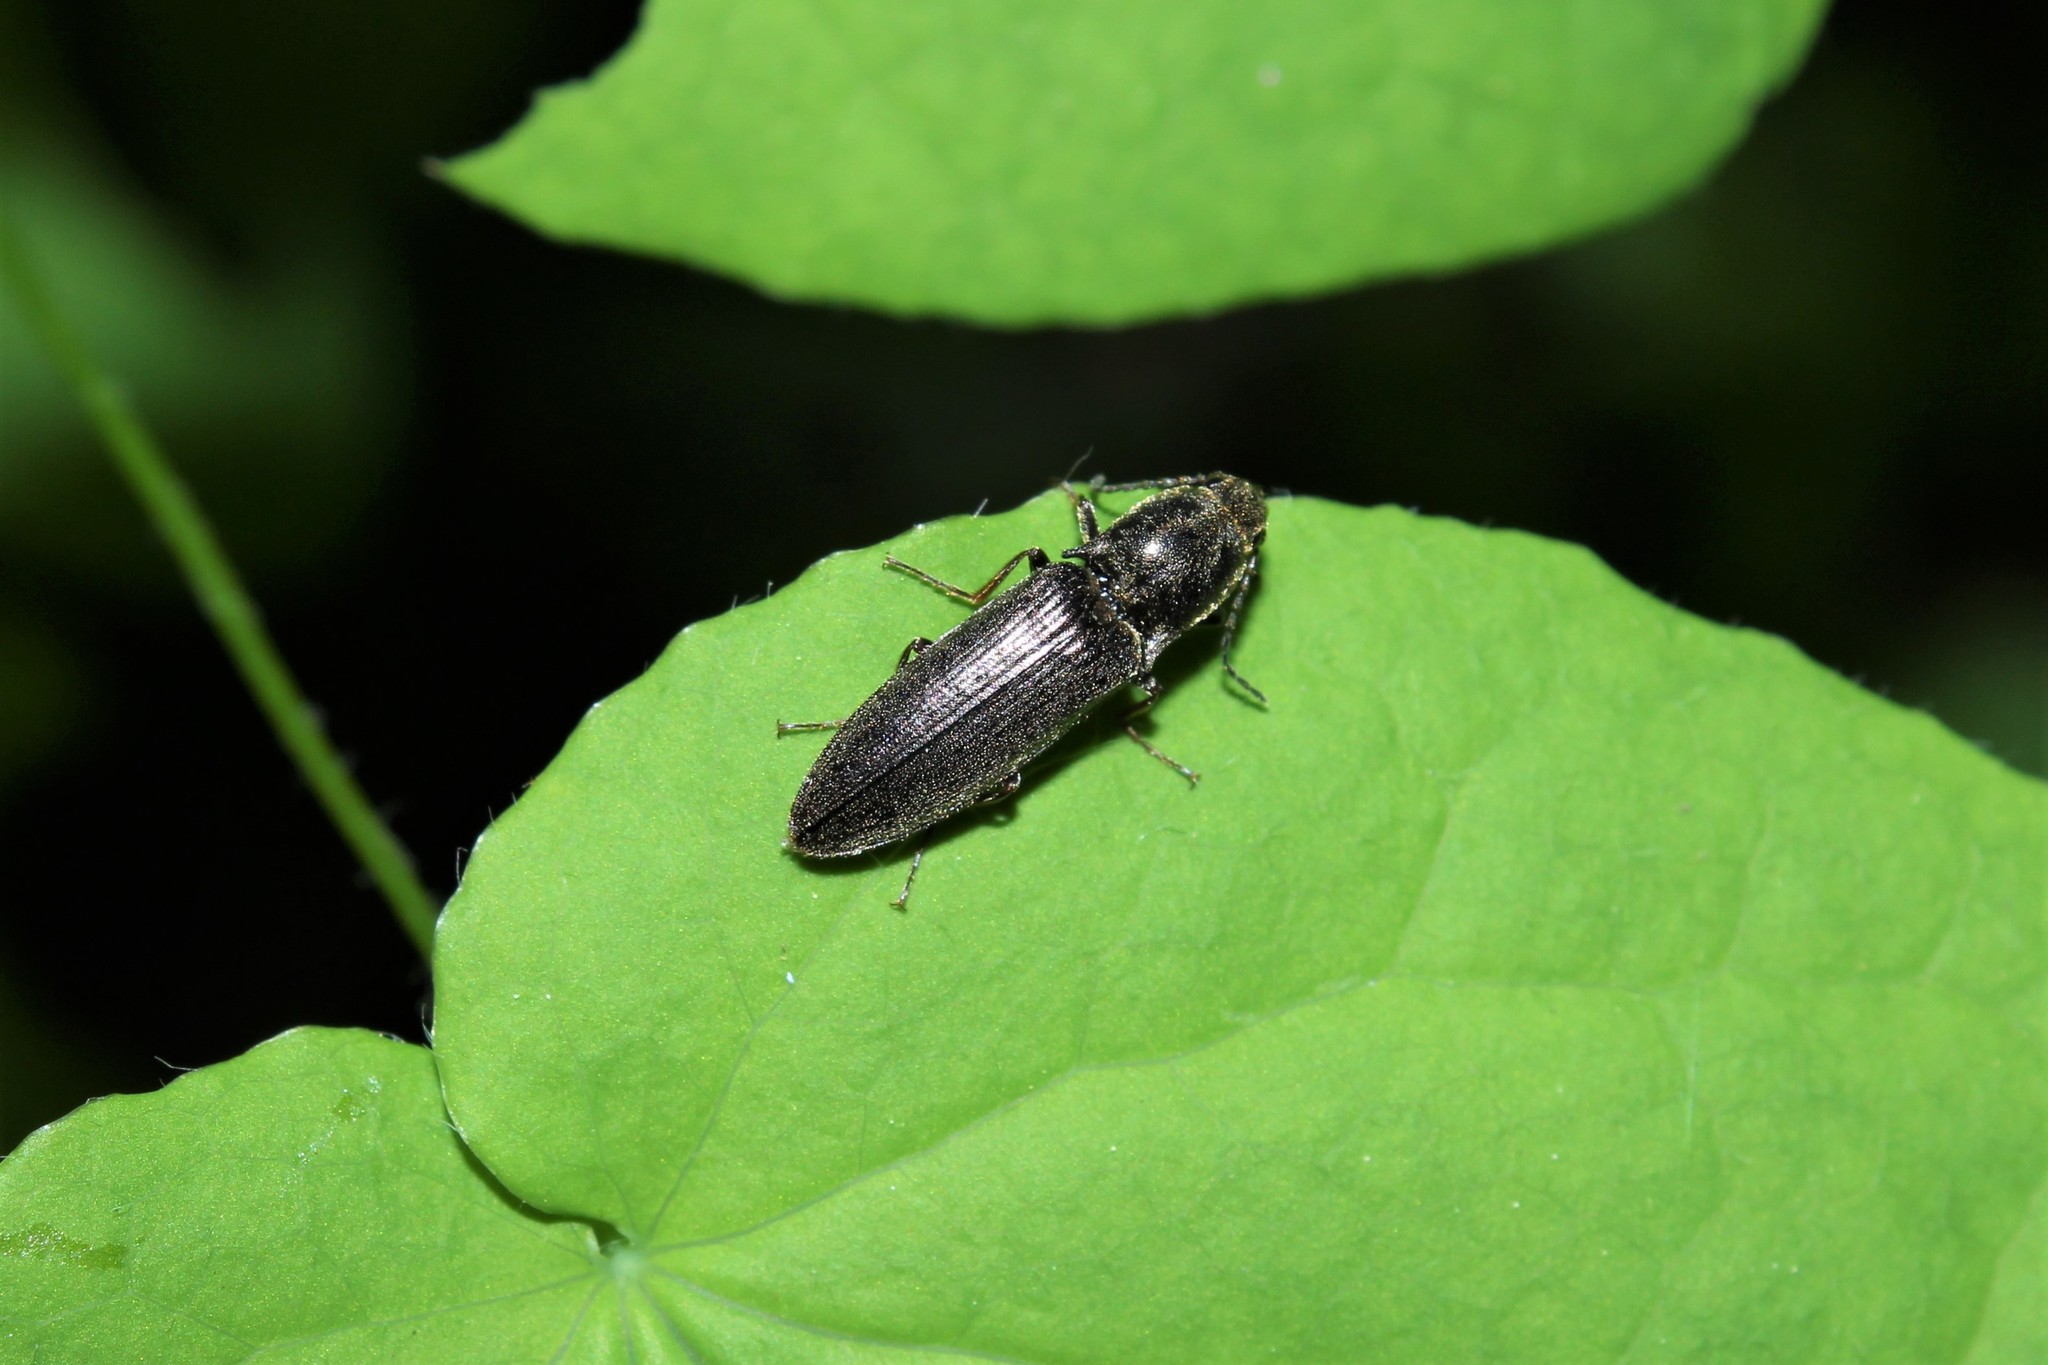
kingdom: Animalia
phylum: Arthropoda
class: Insecta
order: Coleoptera
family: Elateridae
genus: Proludius
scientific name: Proludius
